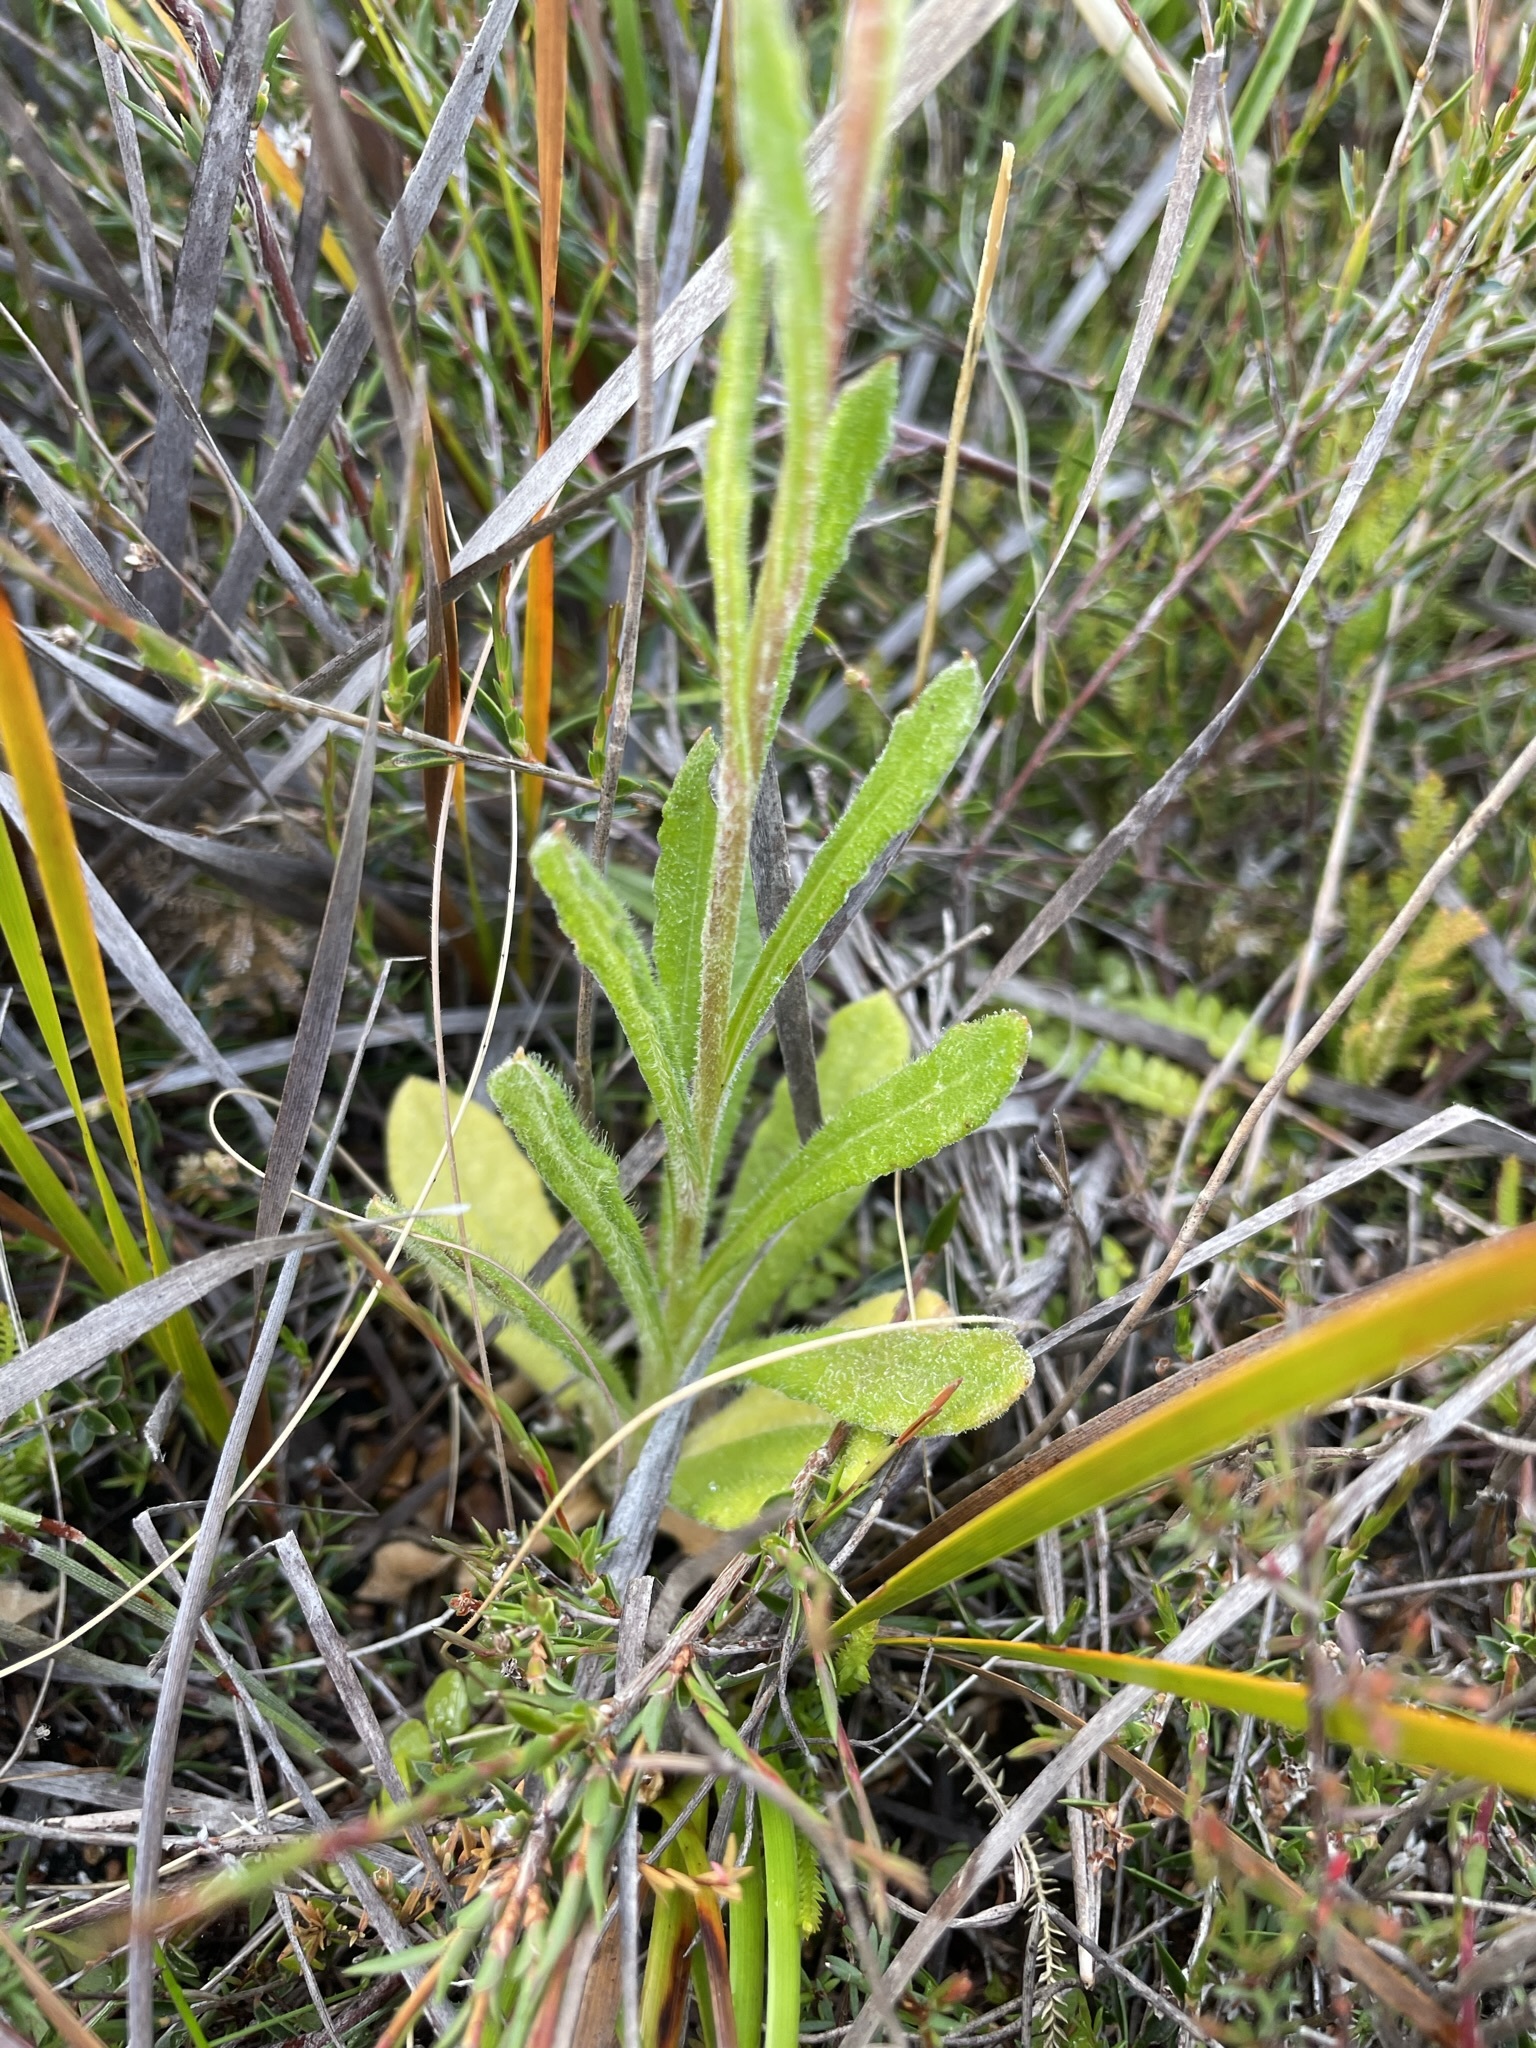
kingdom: Plantae
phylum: Tracheophyta
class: Magnoliopsida
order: Asterales
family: Asteraceae
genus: Coronidium
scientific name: Coronidium scorpioides
